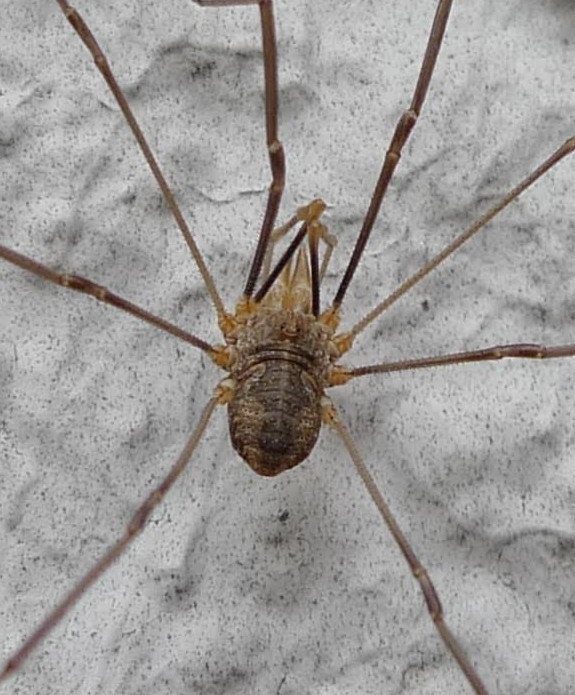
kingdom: Animalia
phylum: Arthropoda
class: Arachnida
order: Opiliones
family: Phalangiidae
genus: Phalangium
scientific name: Phalangium opilio
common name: Daddy longleg
